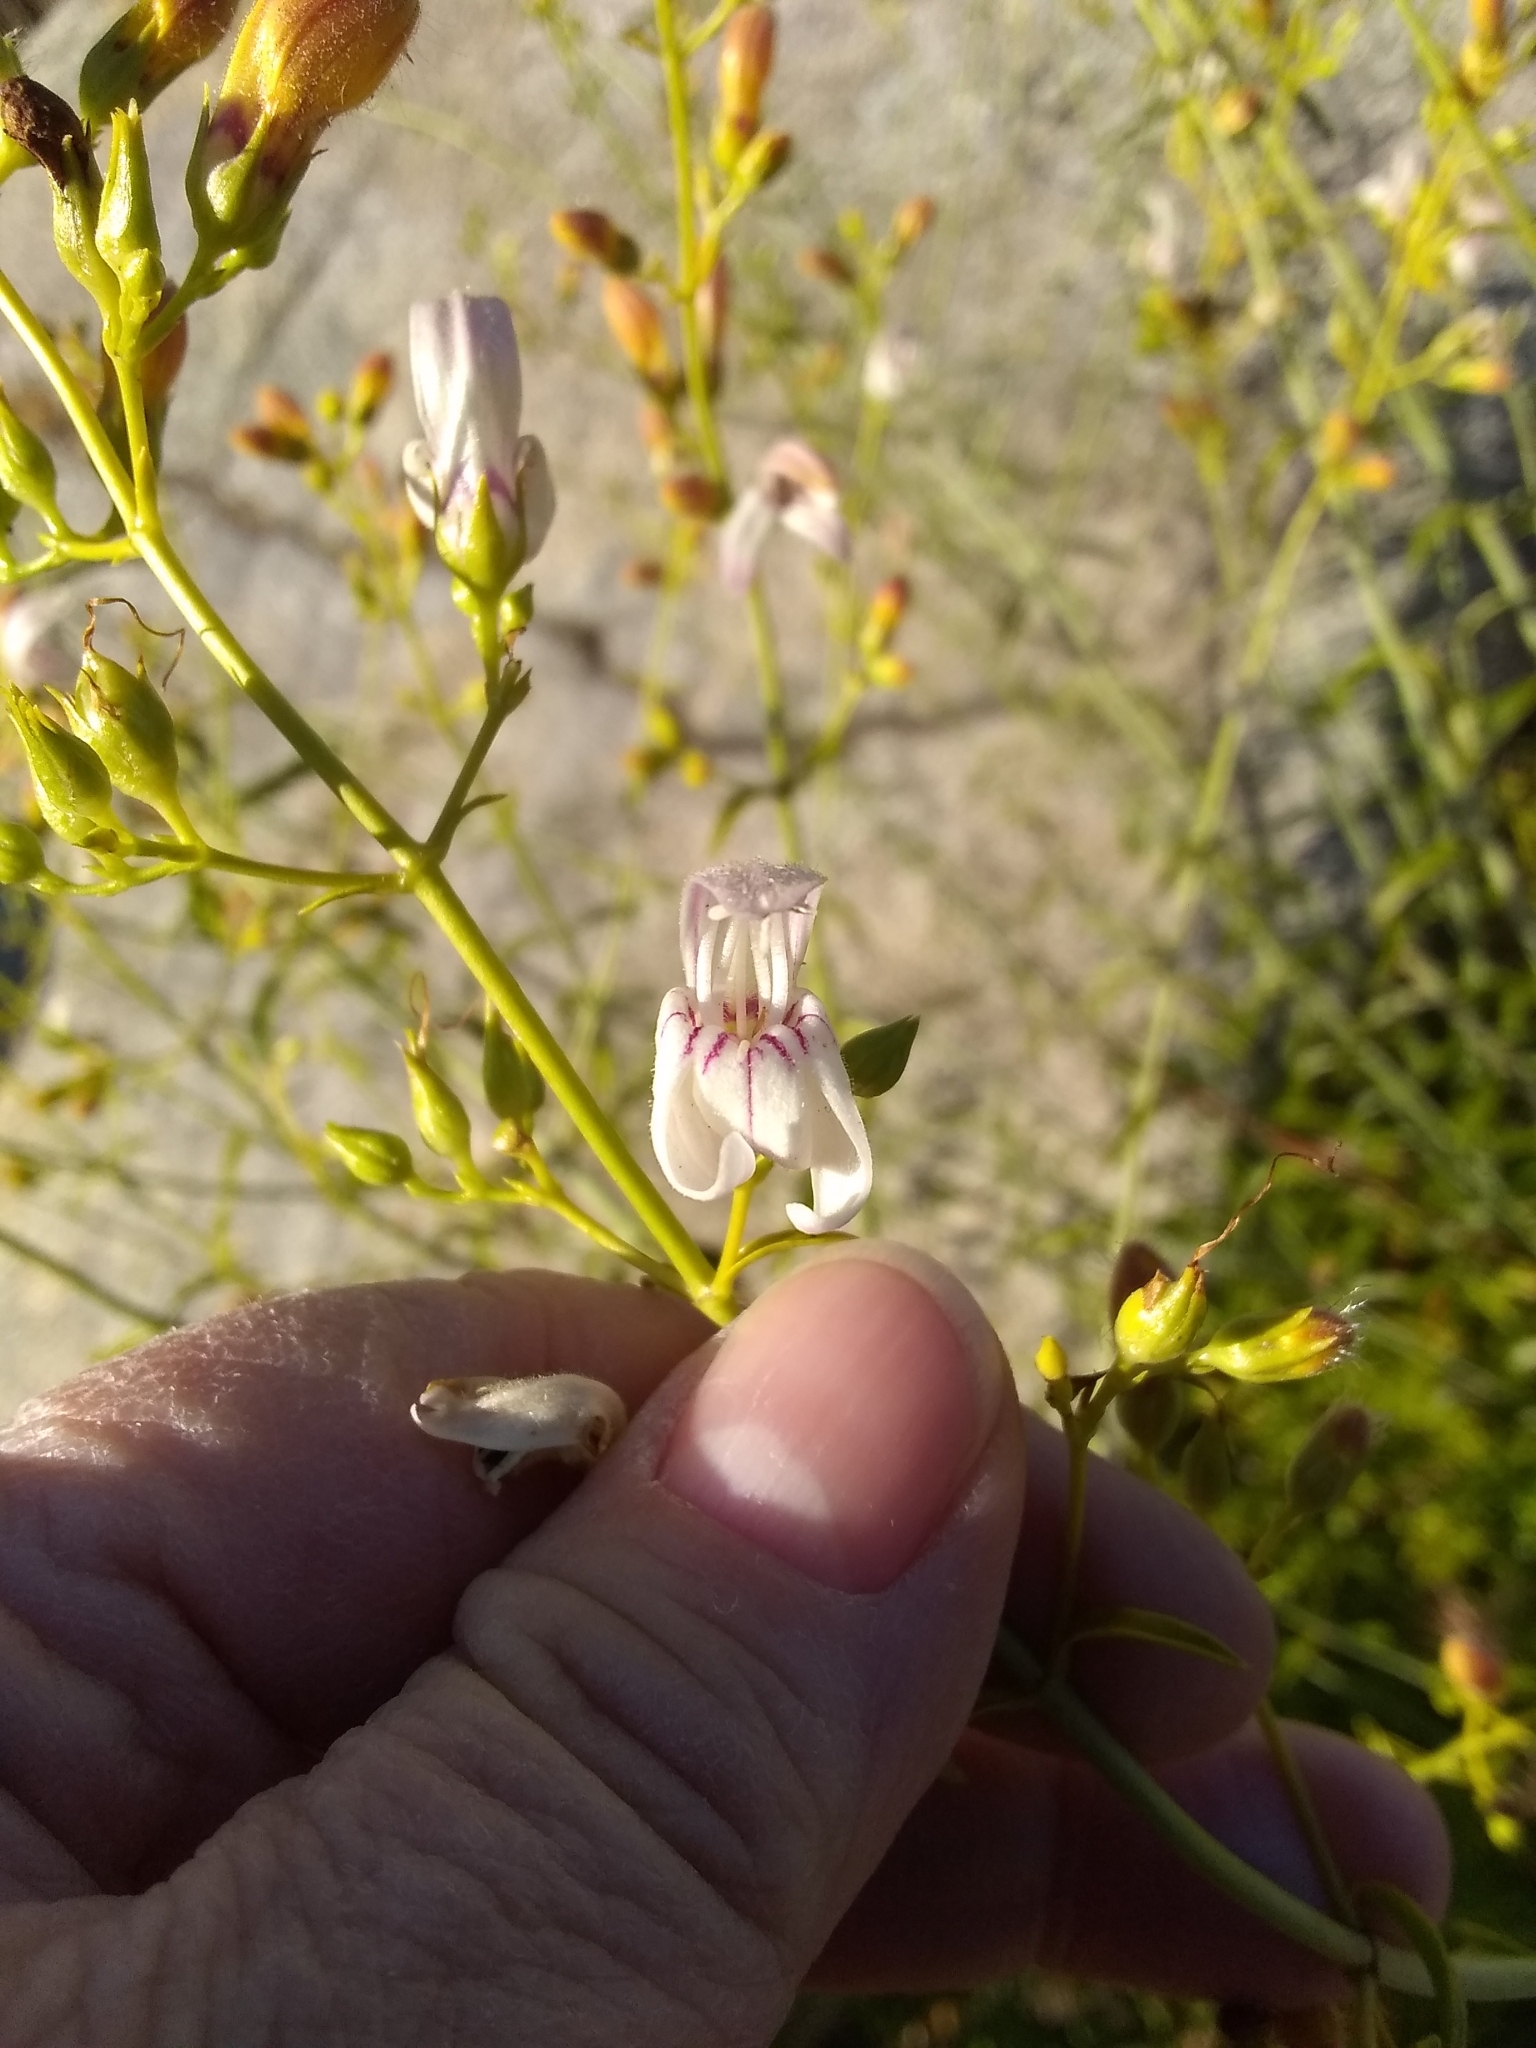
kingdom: Plantae
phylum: Tracheophyta
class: Magnoliopsida
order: Lamiales
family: Plantaginaceae
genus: Keckiella
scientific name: Keckiella breviflora
